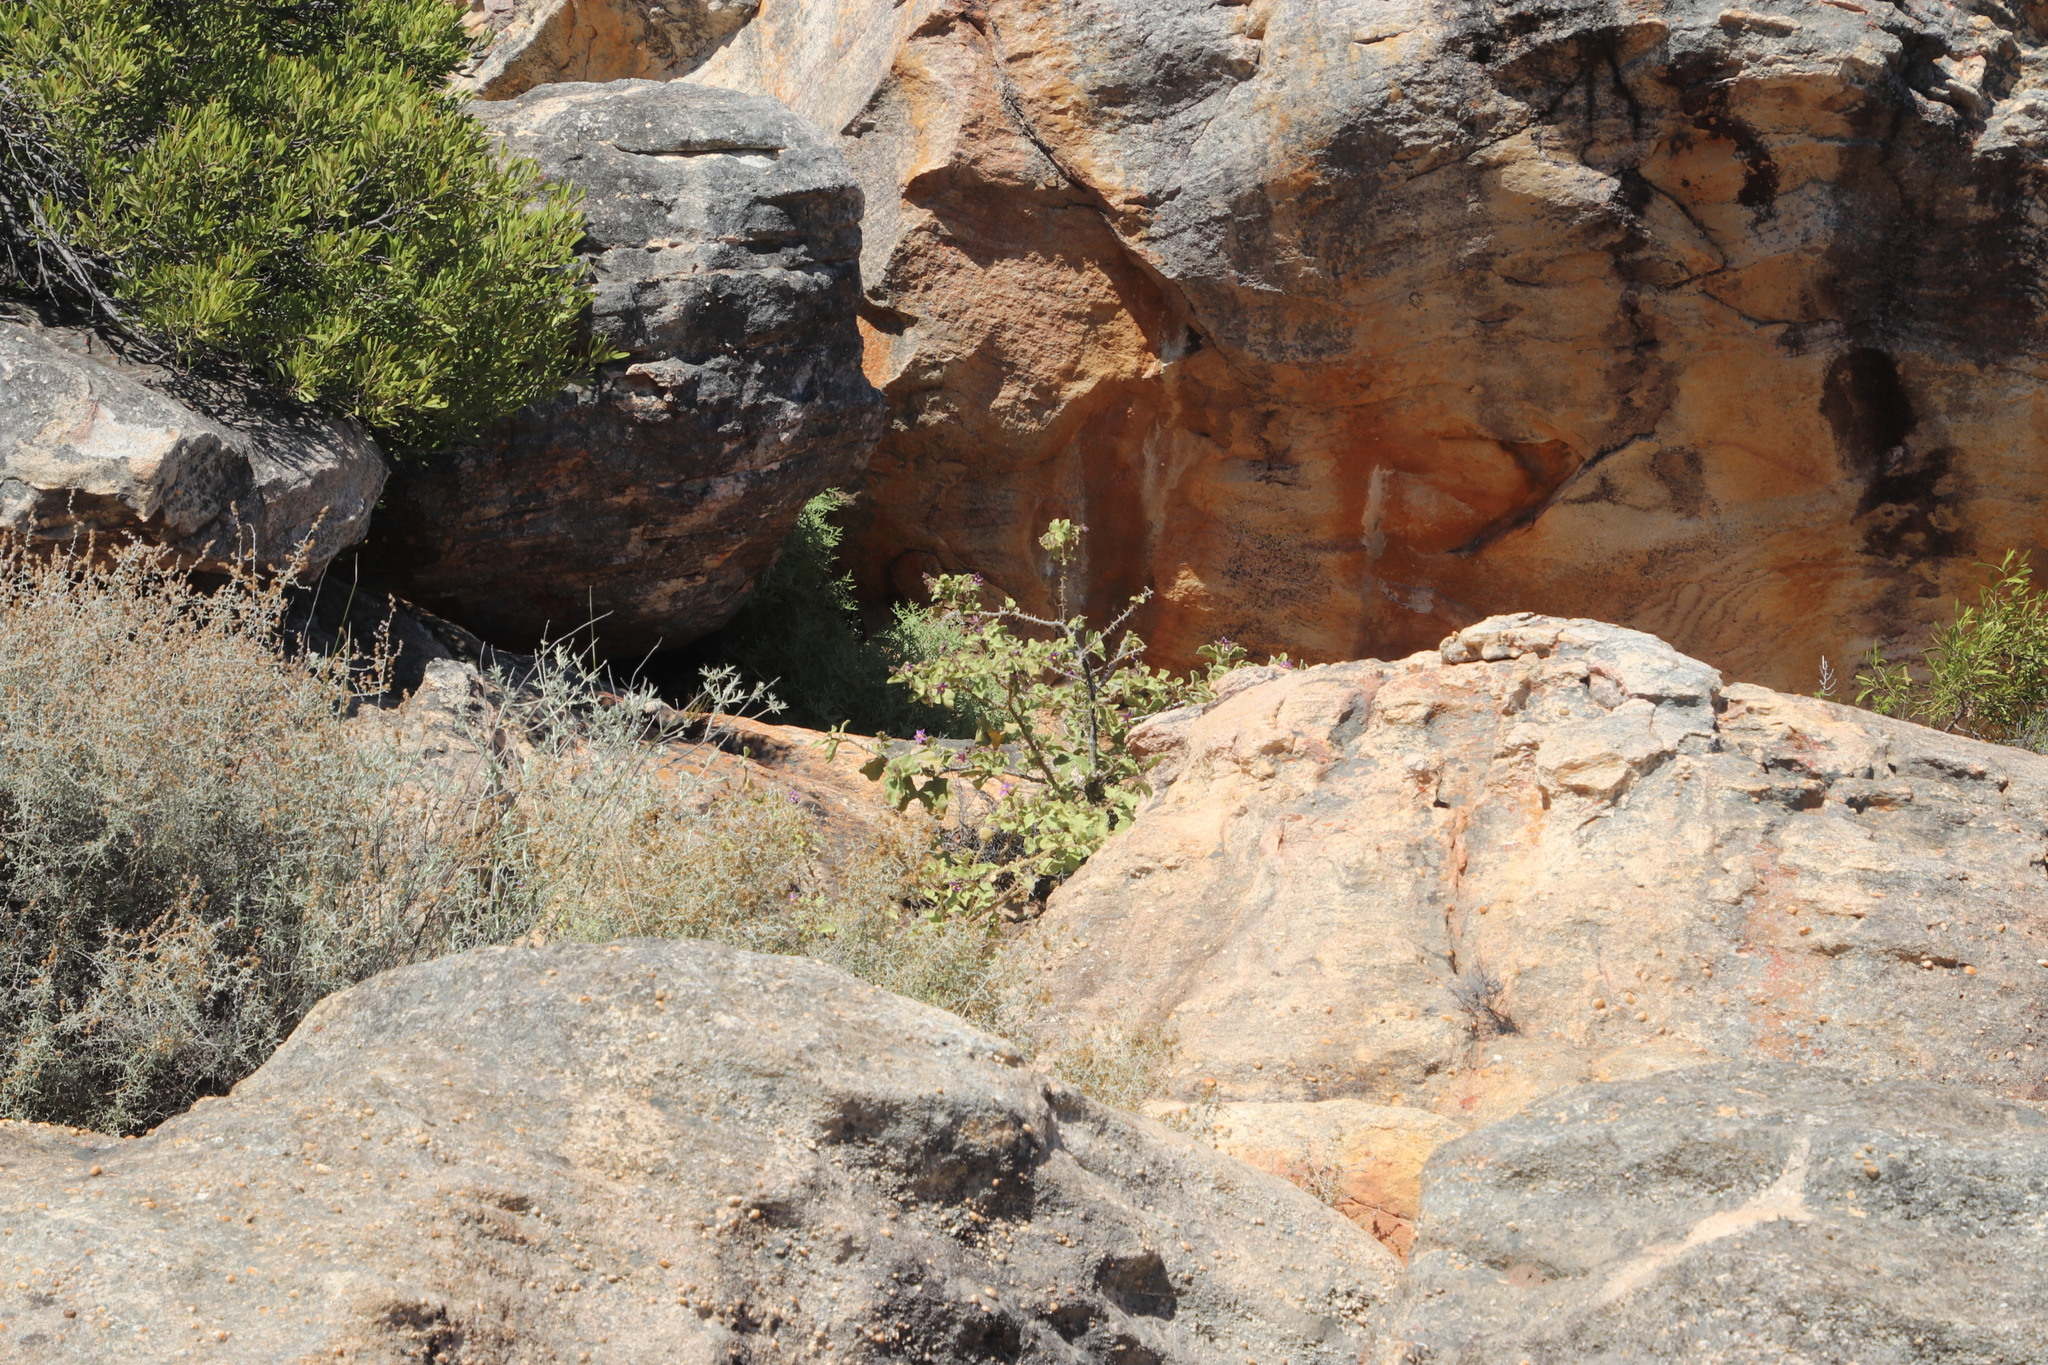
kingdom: Plantae
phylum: Tracheophyta
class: Magnoliopsida
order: Solanales
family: Solanaceae
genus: Solanum
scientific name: Solanum tomentosum
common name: Wild aubergine
